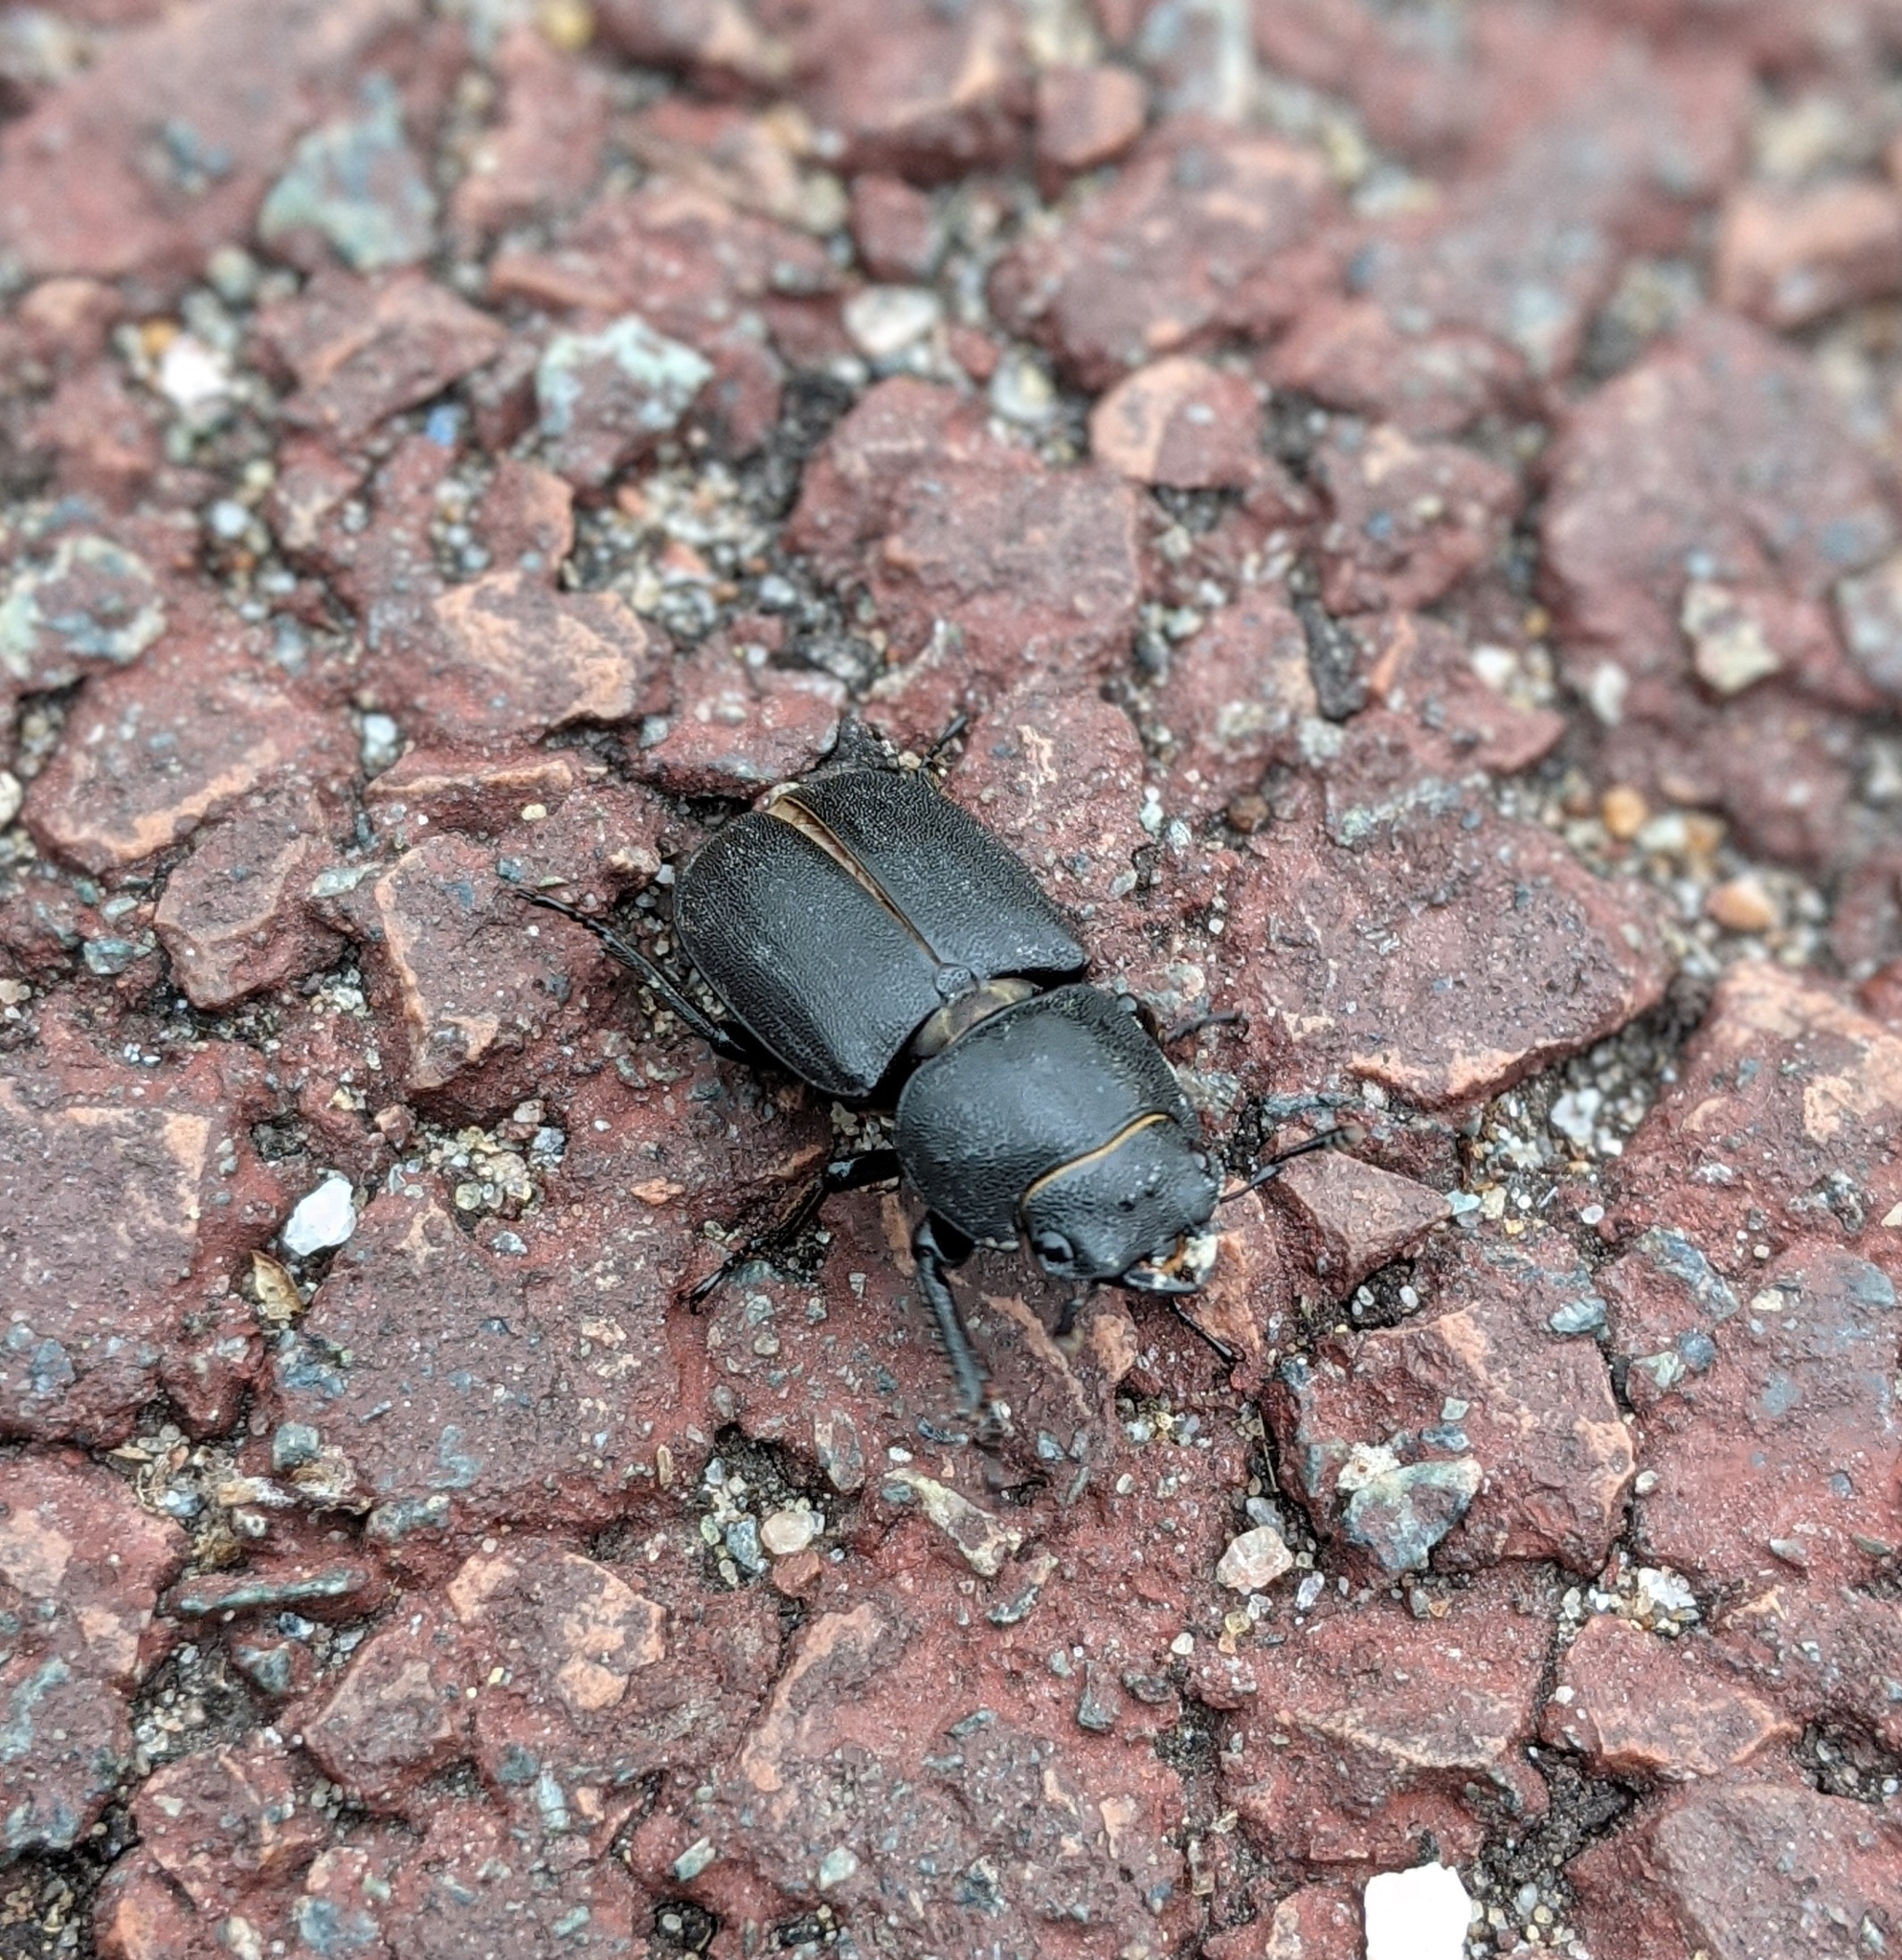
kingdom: Animalia
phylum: Arthropoda
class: Insecta
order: Coleoptera
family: Lucanidae
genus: Dorcus
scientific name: Dorcus parallelipipedus
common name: Lesser stag beetle
